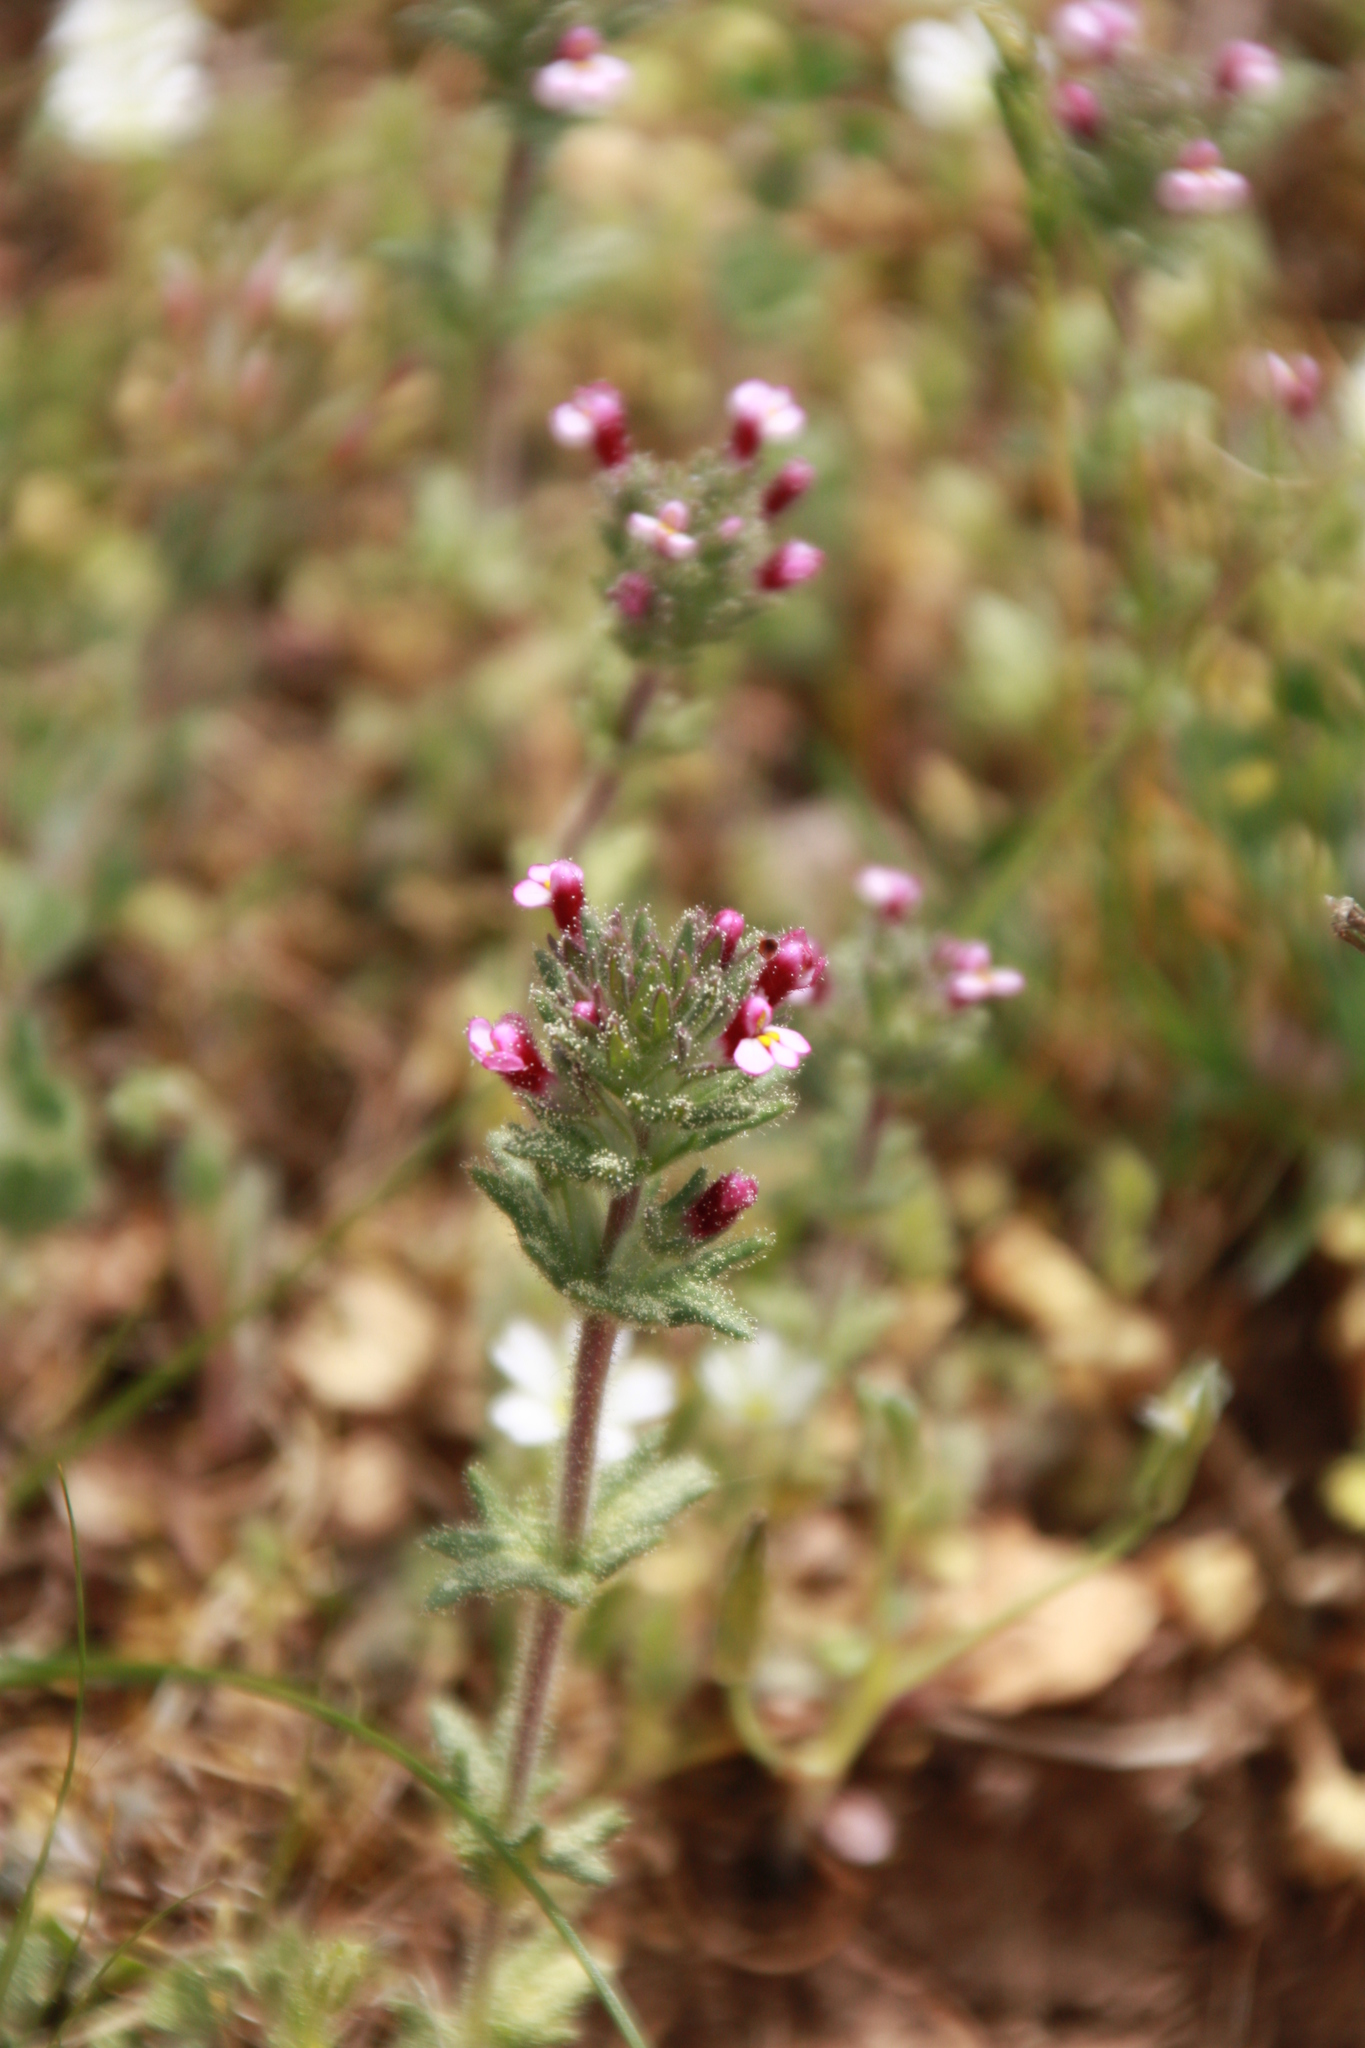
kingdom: Plantae
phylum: Tracheophyta
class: Magnoliopsida
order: Lamiales
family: Orobanchaceae
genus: Parentucellia
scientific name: Parentucellia latifolia
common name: Broadleaf glandweed
